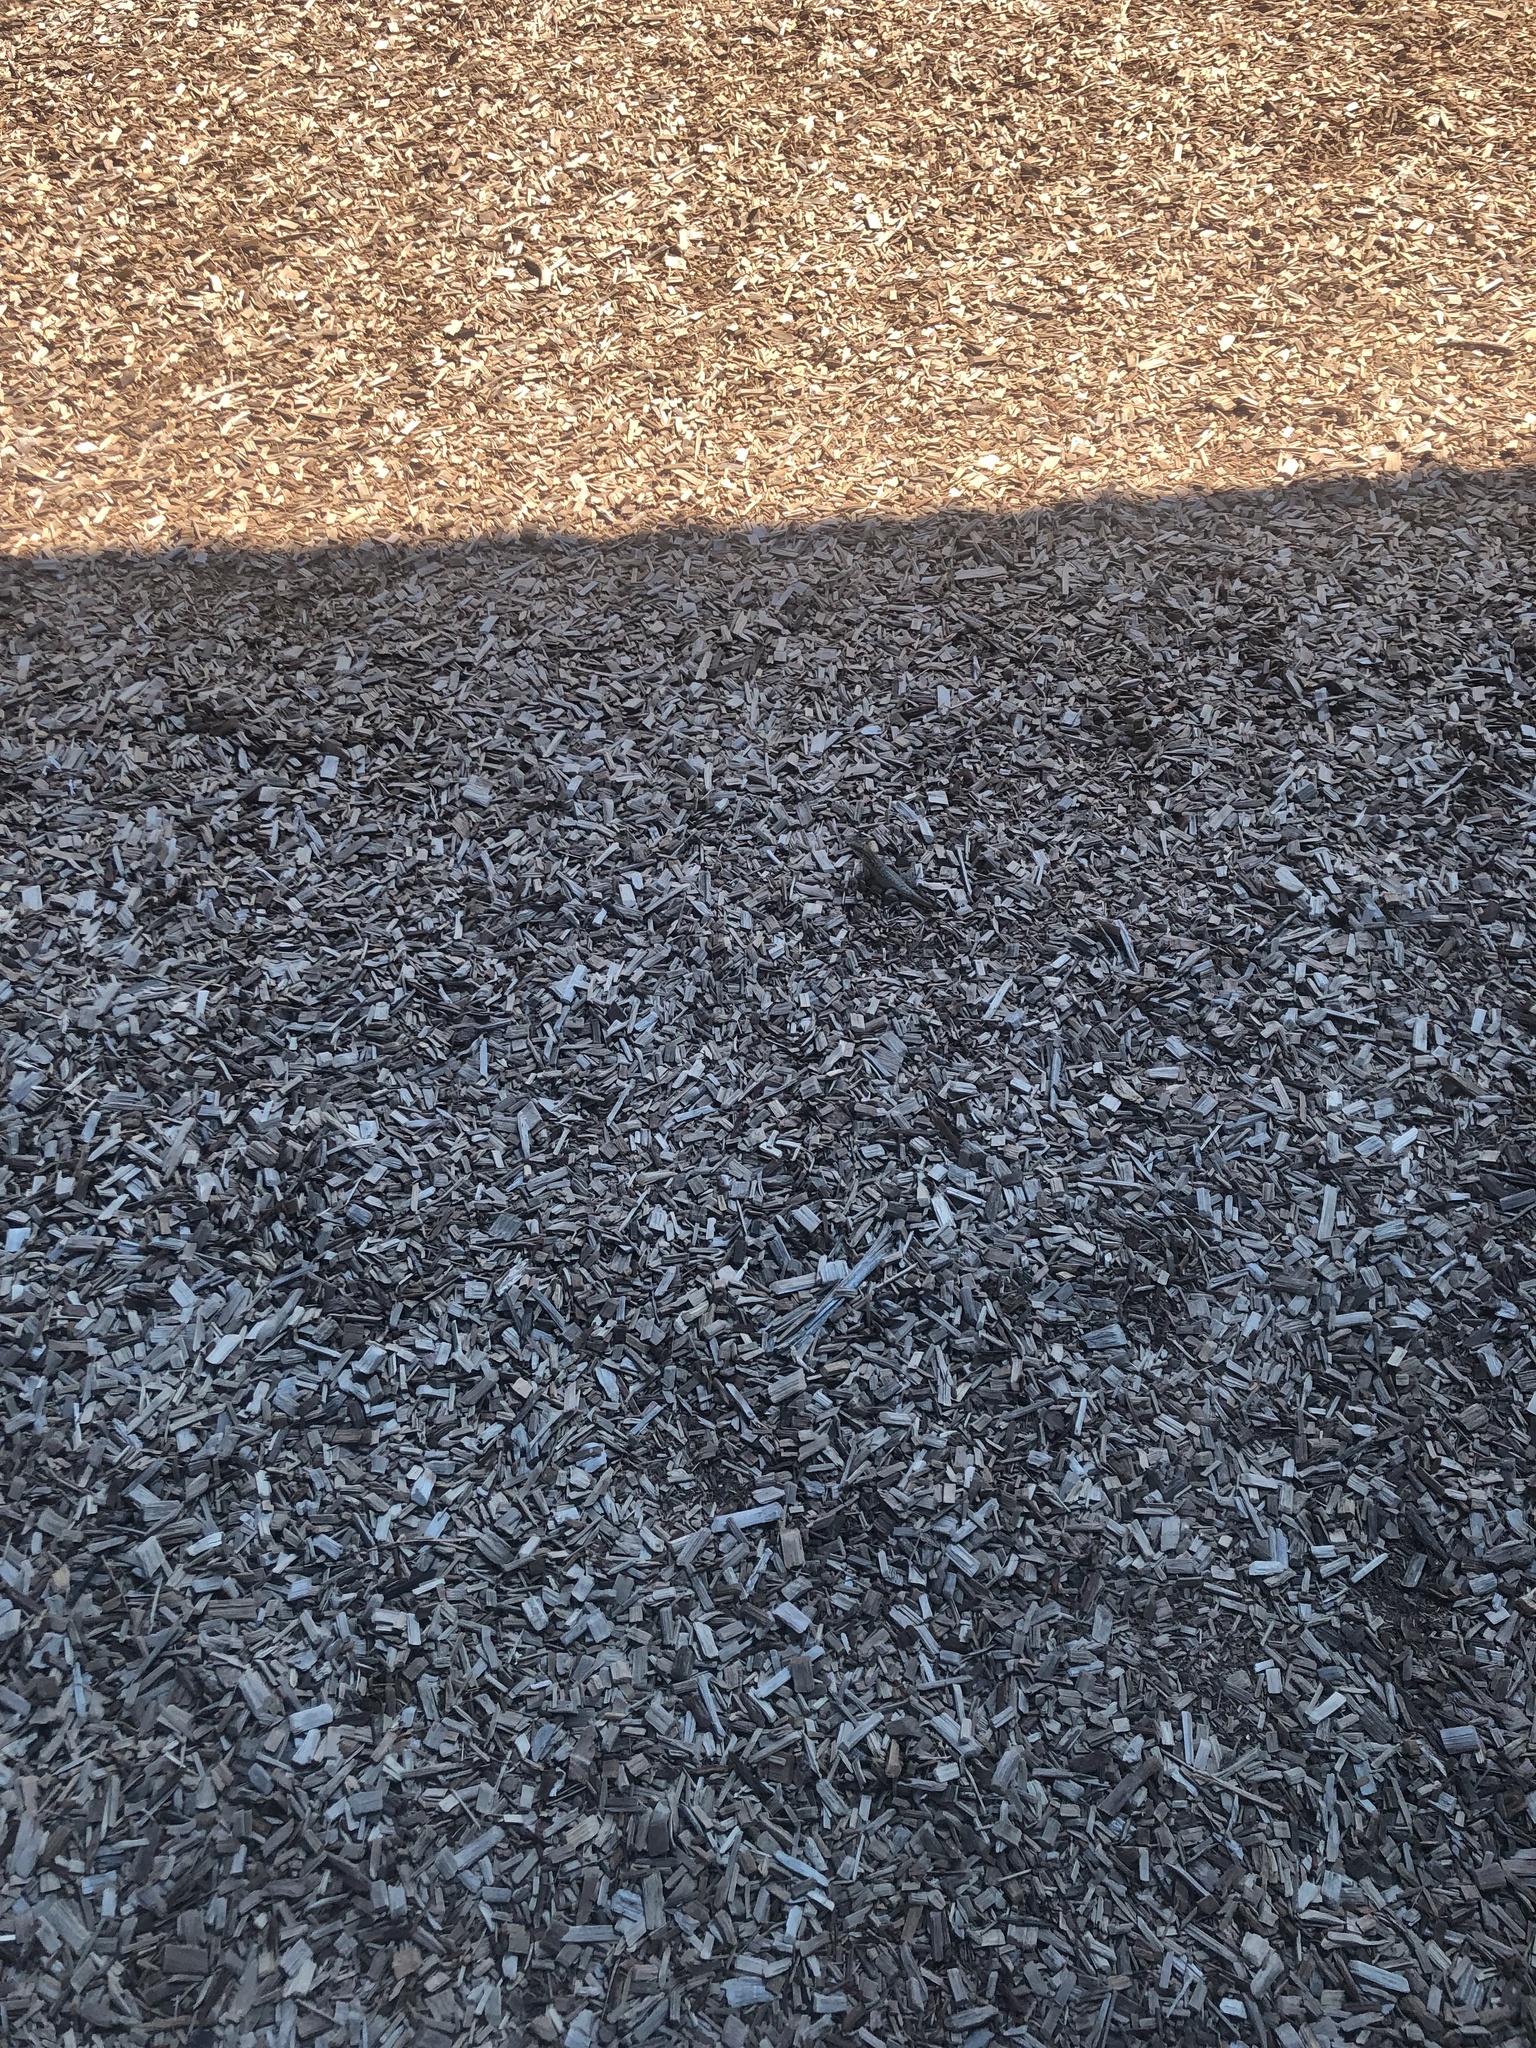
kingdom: Animalia
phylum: Chordata
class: Squamata
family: Leiocephalidae
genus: Leiocephalus
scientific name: Leiocephalus carinatus
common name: Northern curly-tailed lizard
